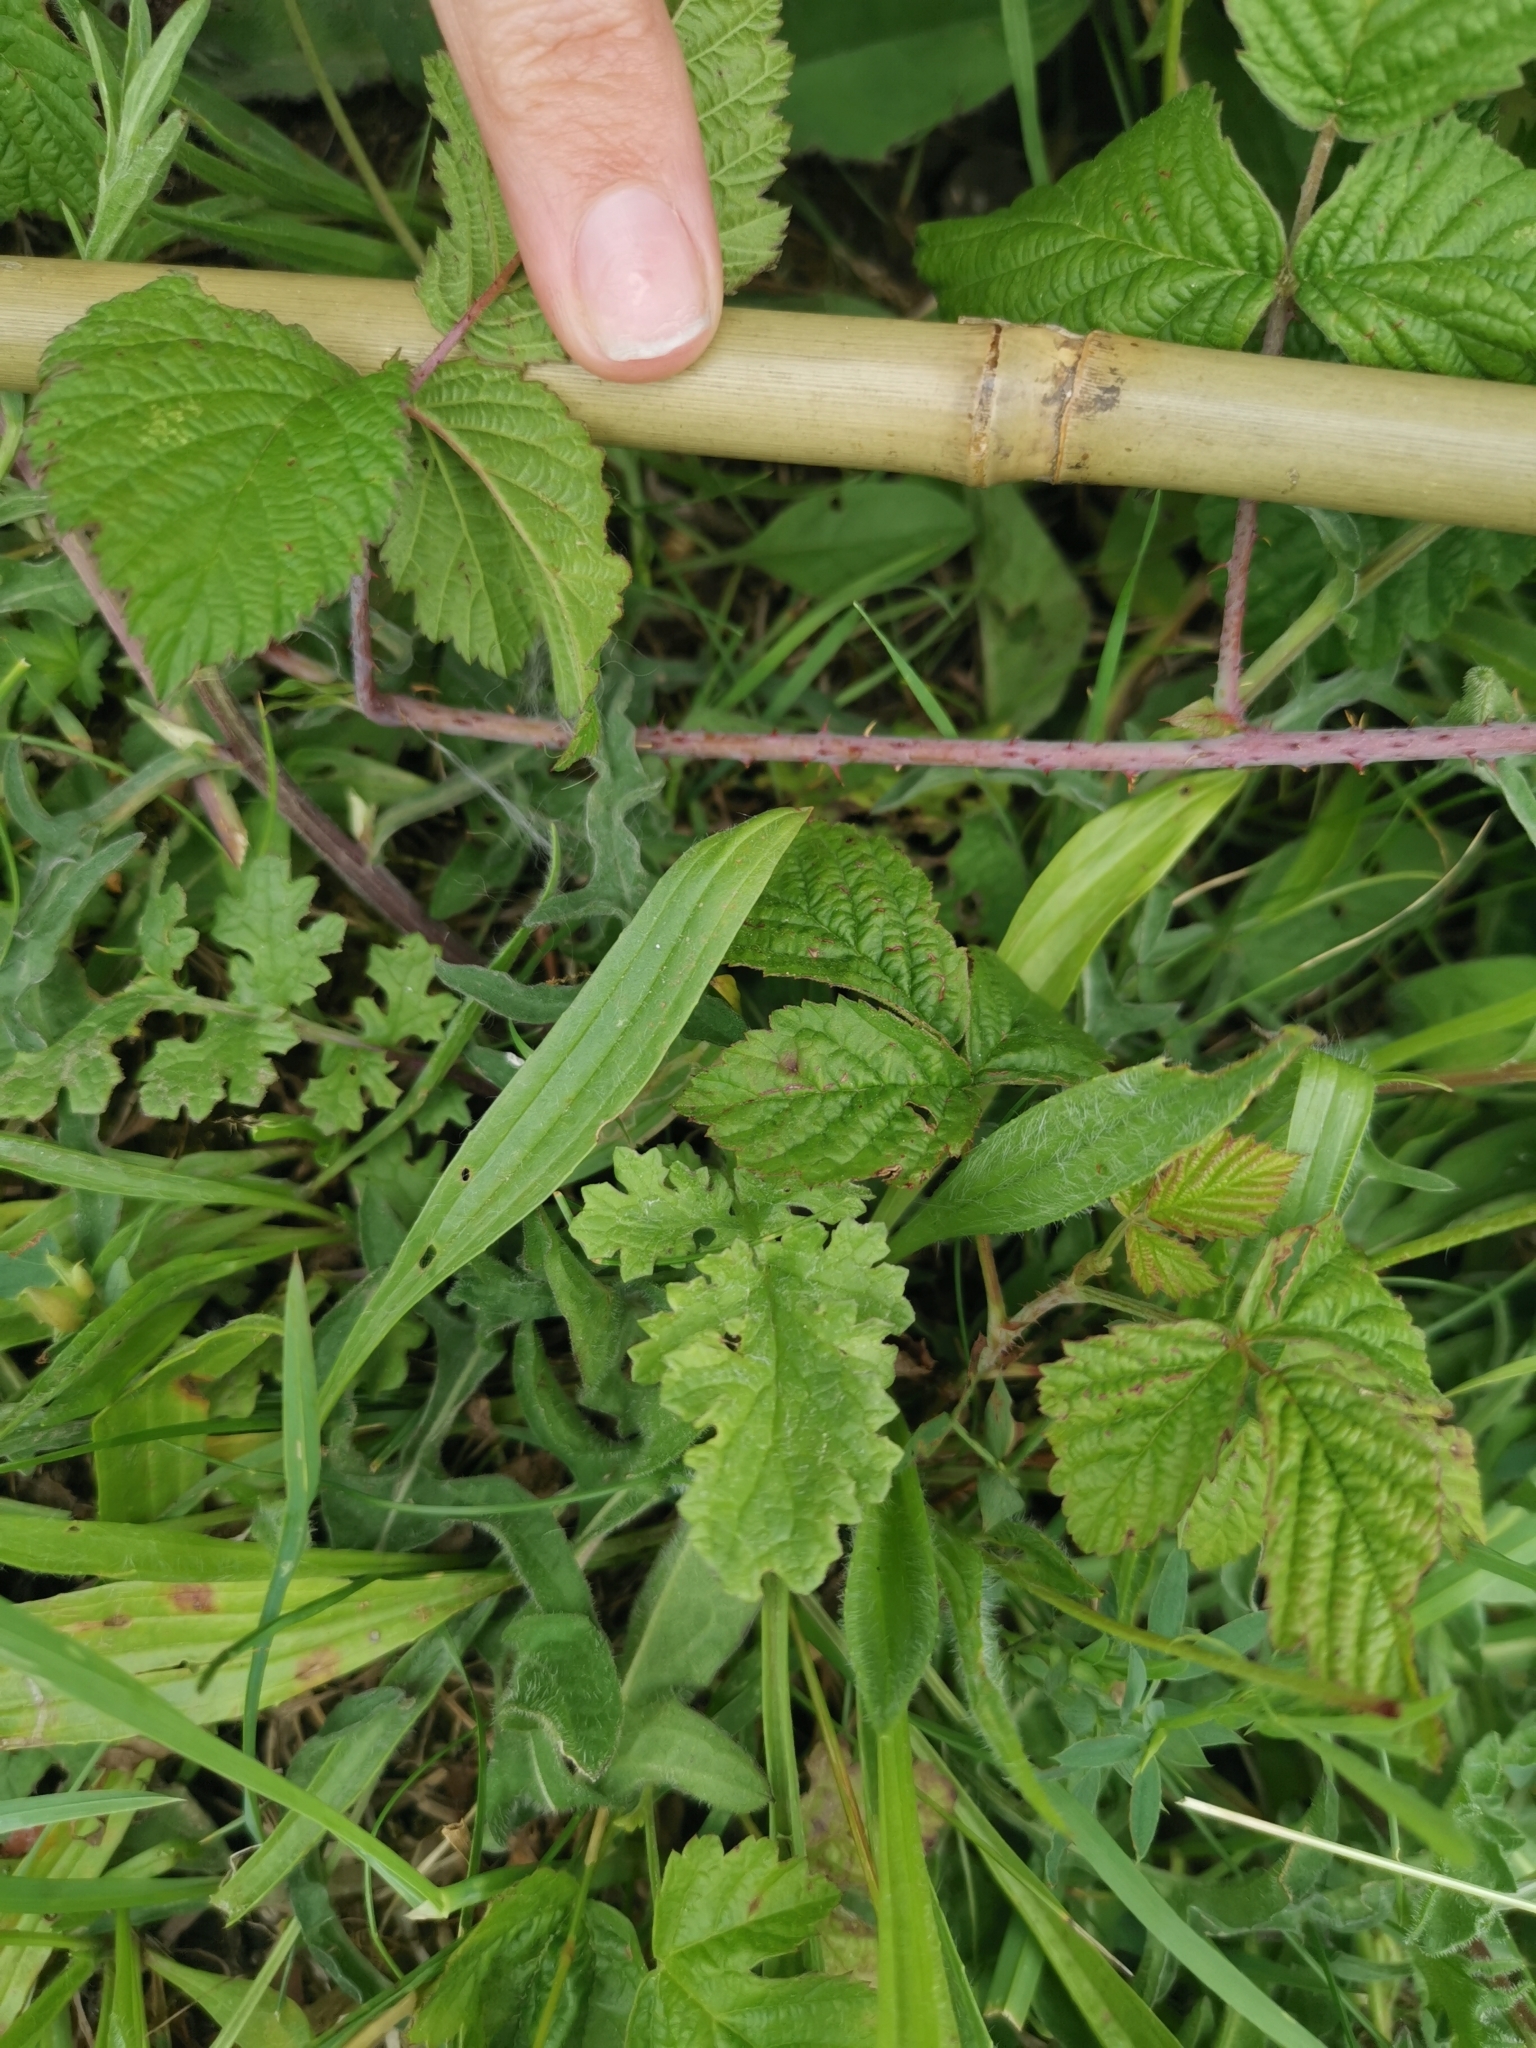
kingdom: Plantae
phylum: Tracheophyta
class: Magnoliopsida
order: Asterales
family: Asteraceae
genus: Jacobaea
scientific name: Jacobaea vulgaris
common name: Stinking willie
